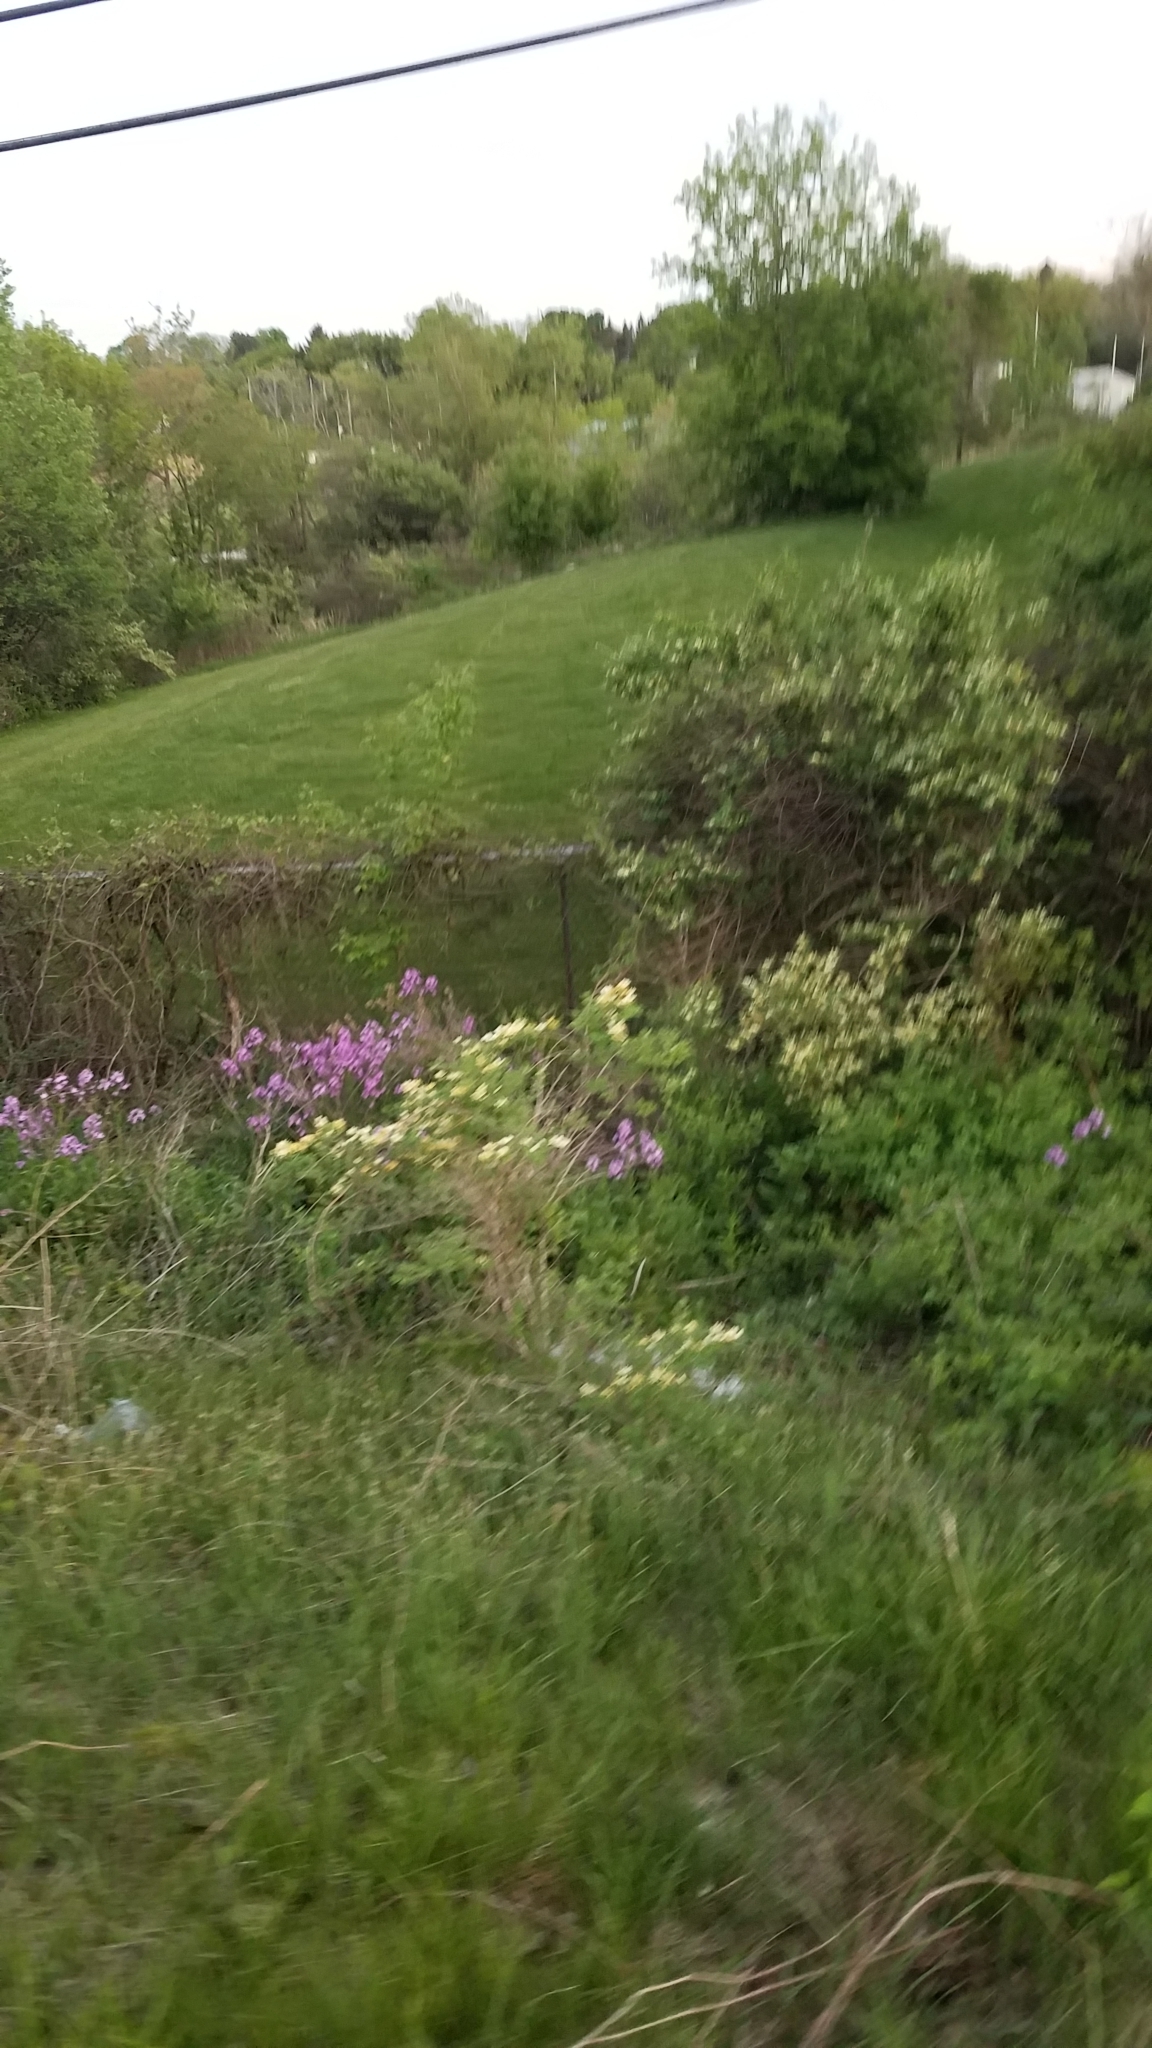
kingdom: Plantae
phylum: Tracheophyta
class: Magnoliopsida
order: Brassicales
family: Brassicaceae
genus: Hesperis
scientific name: Hesperis matronalis
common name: Dame's-violet
